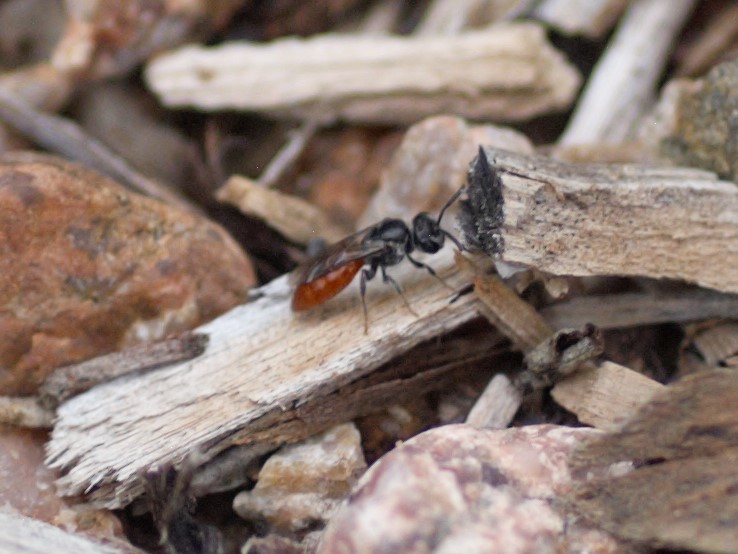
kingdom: Animalia
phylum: Arthropoda
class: Insecta
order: Hymenoptera
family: Halictidae
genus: Sphecodes
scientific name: Sphecodes
